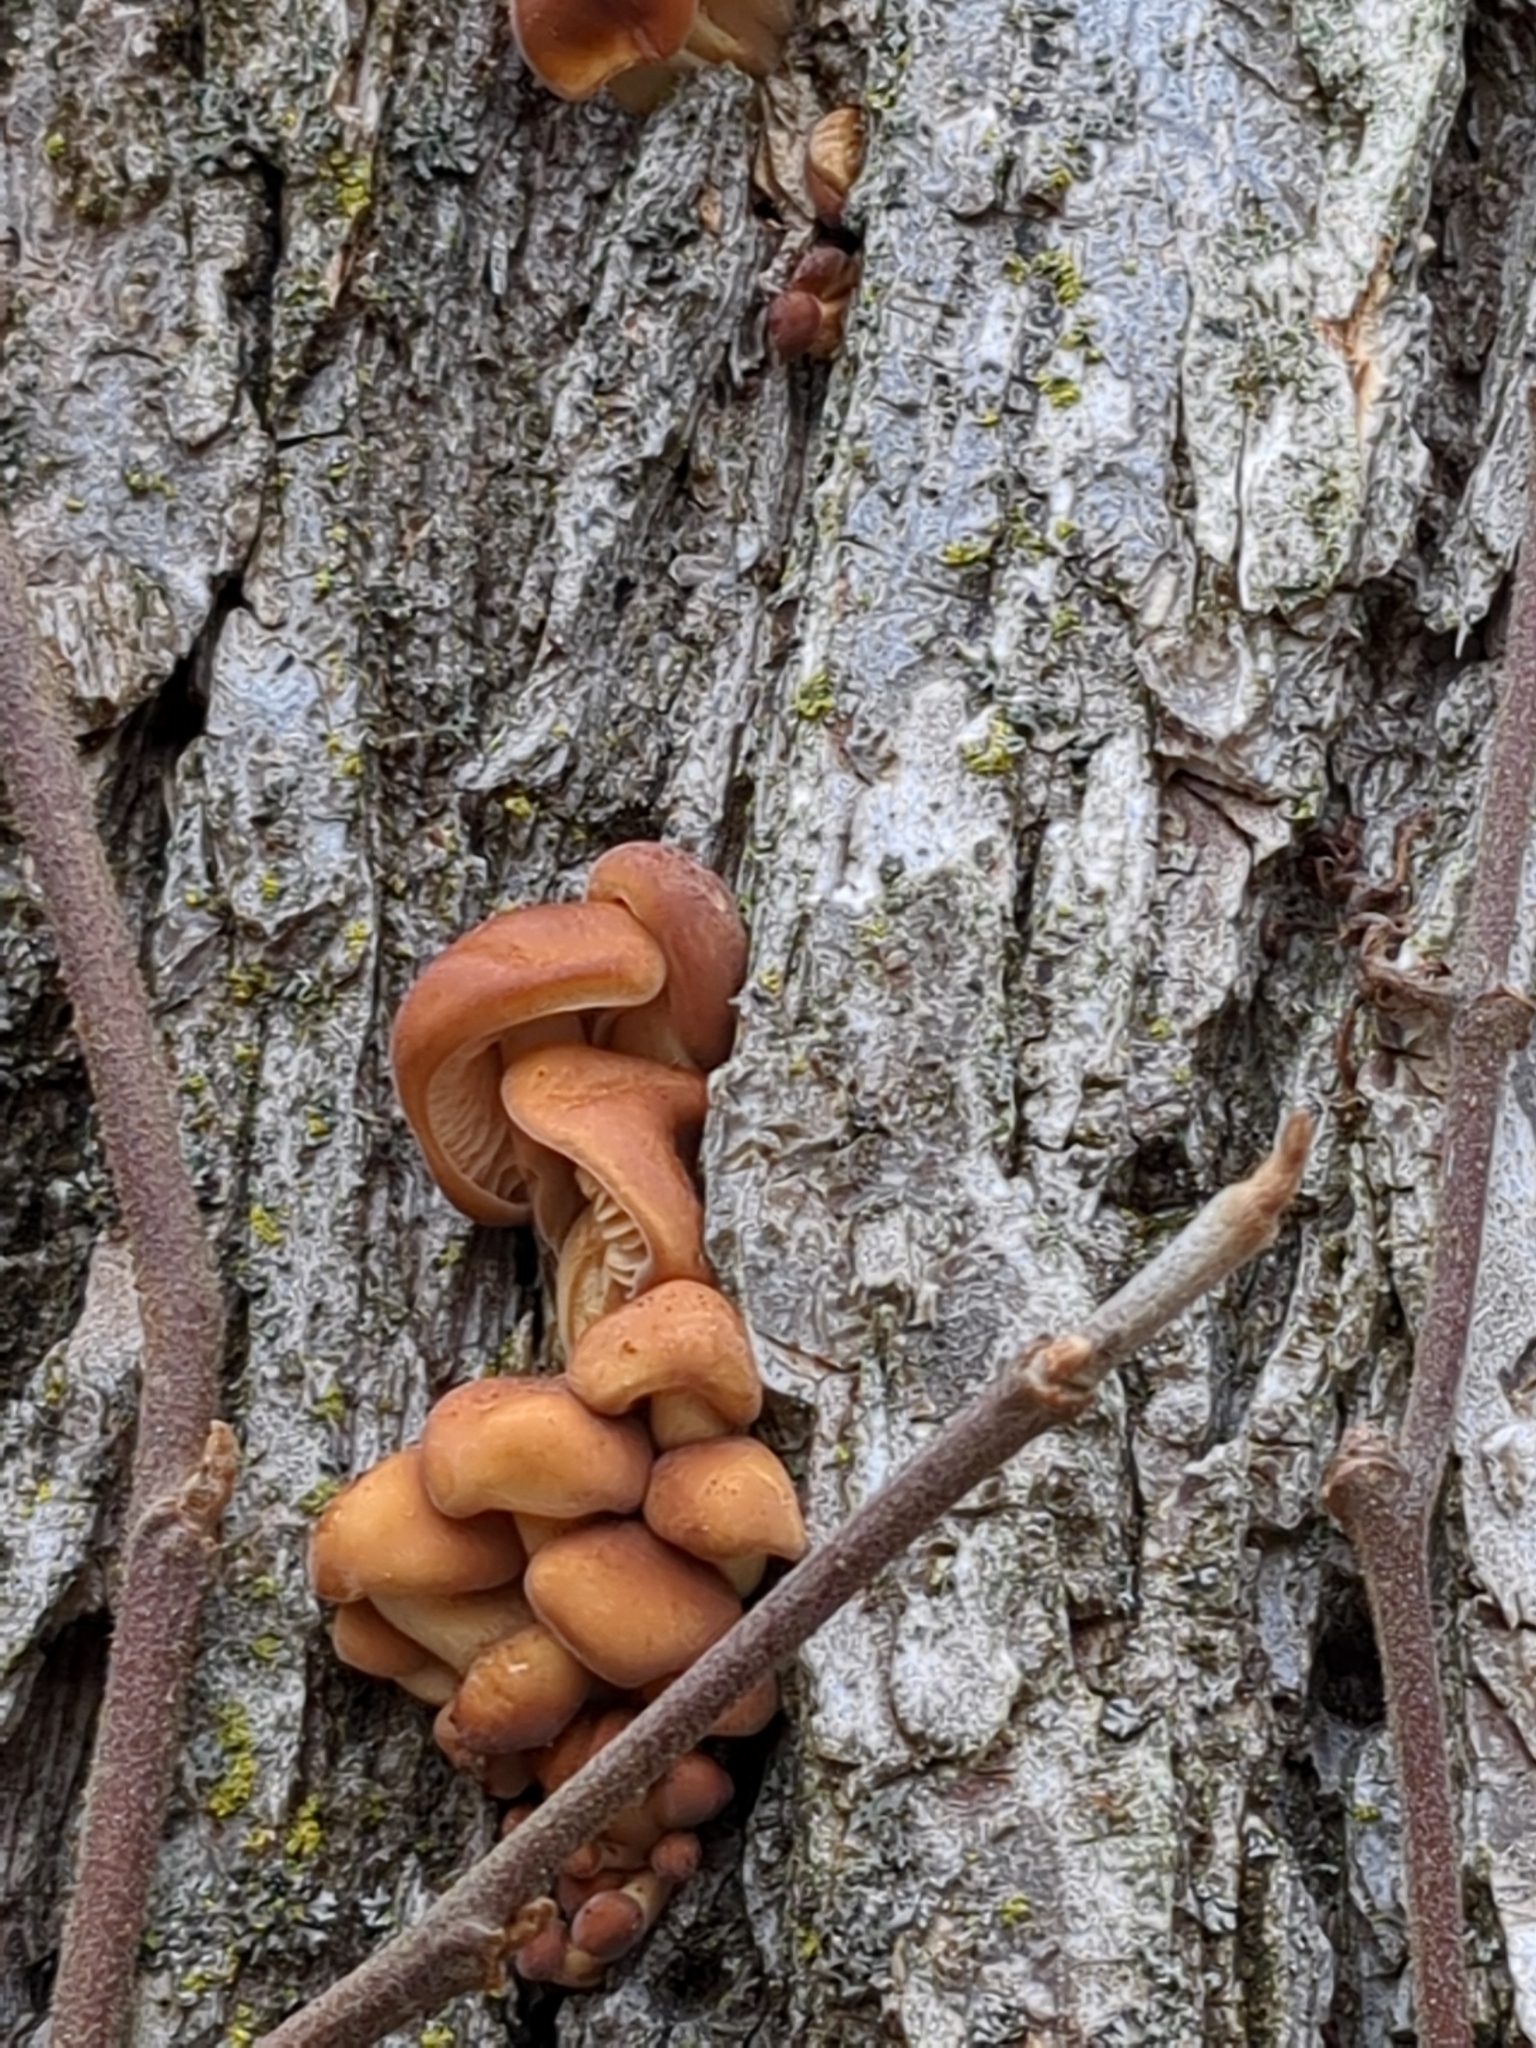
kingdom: Fungi
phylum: Basidiomycota
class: Agaricomycetes
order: Agaricales
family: Physalacriaceae
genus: Flammulina
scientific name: Flammulina velutipes
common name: Velvet shank
